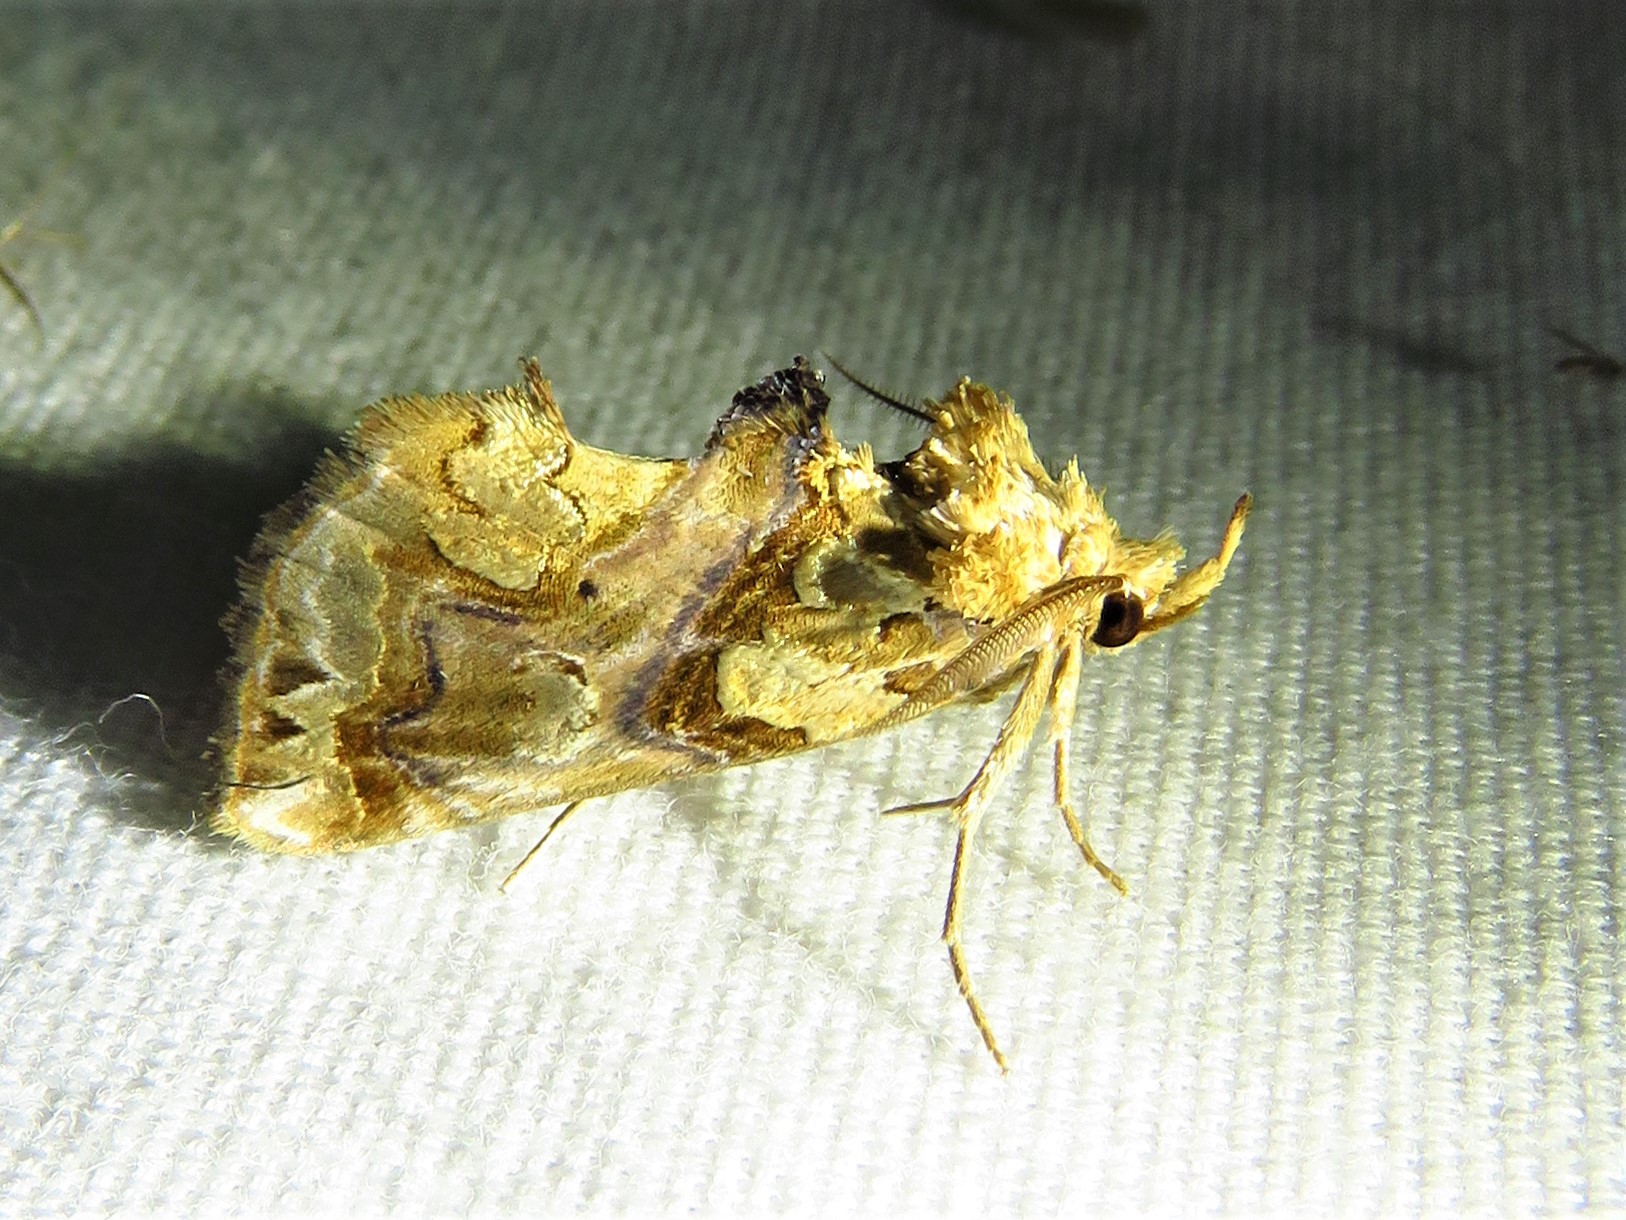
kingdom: Animalia
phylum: Arthropoda
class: Insecta
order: Lepidoptera
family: Erebidae
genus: Plusiodonta
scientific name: Plusiodonta compressipalpis
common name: Moonseed moth
